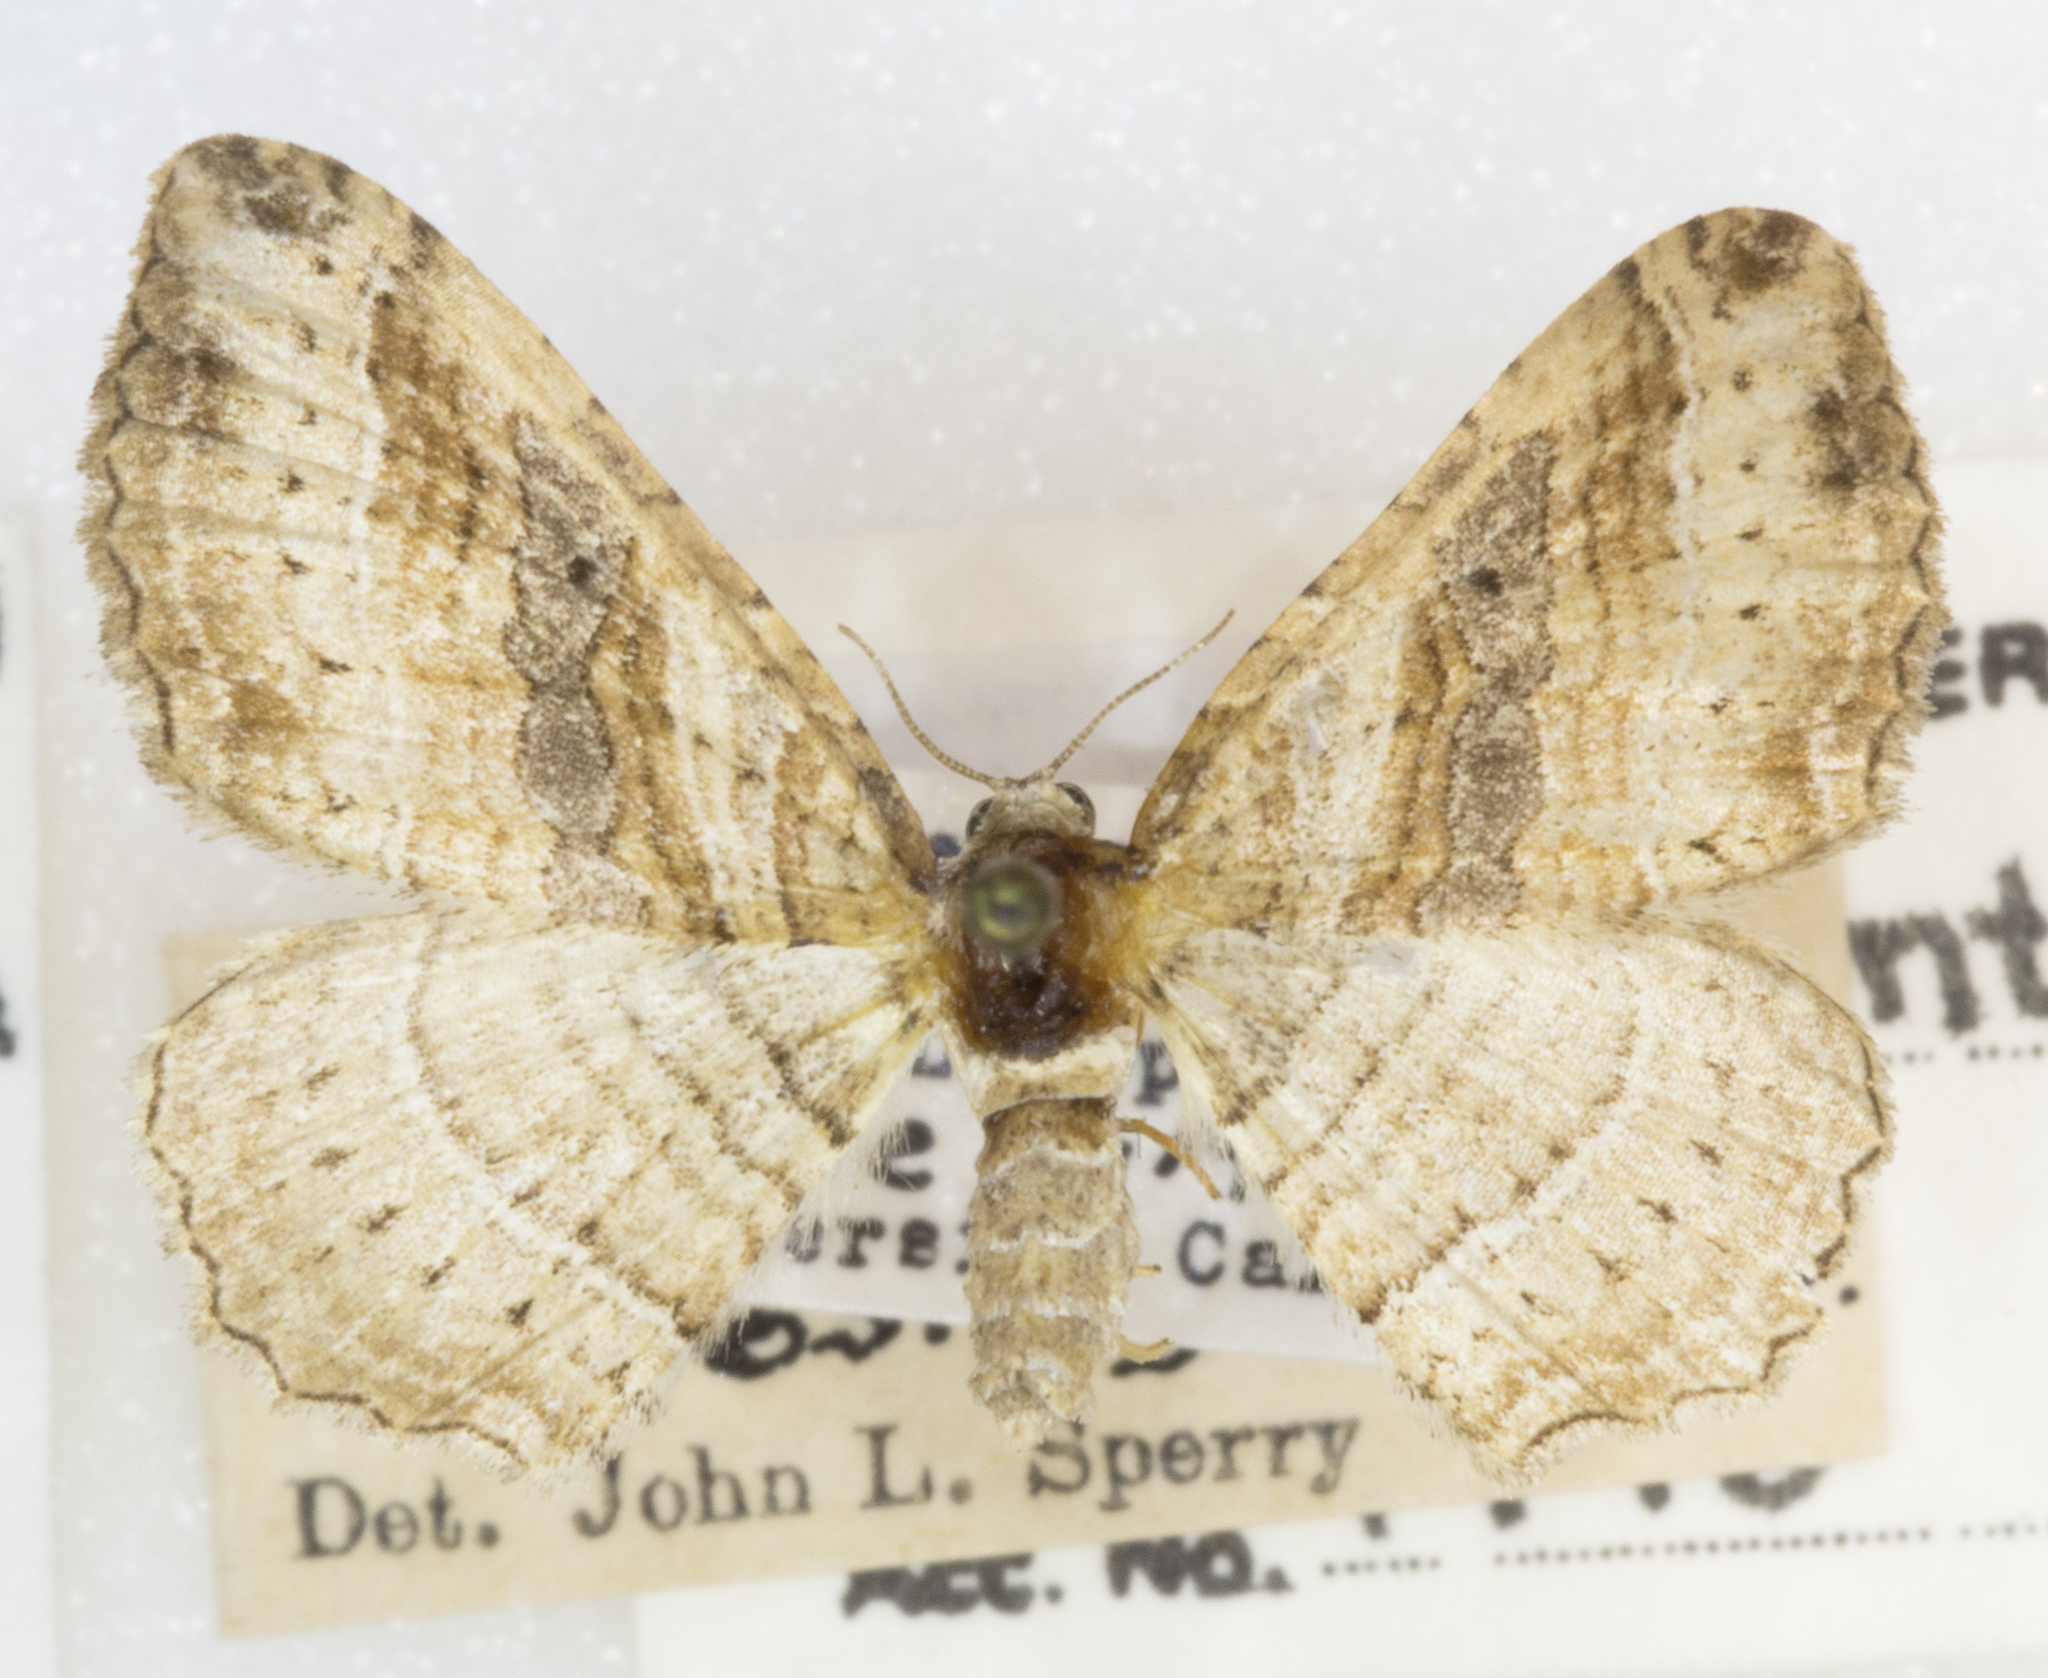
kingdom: Animalia
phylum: Arthropoda
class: Insecta
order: Lepidoptera
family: Geometridae
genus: Costaconvexa
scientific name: Costaconvexa centrostrigaria
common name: Bent-line carpet
